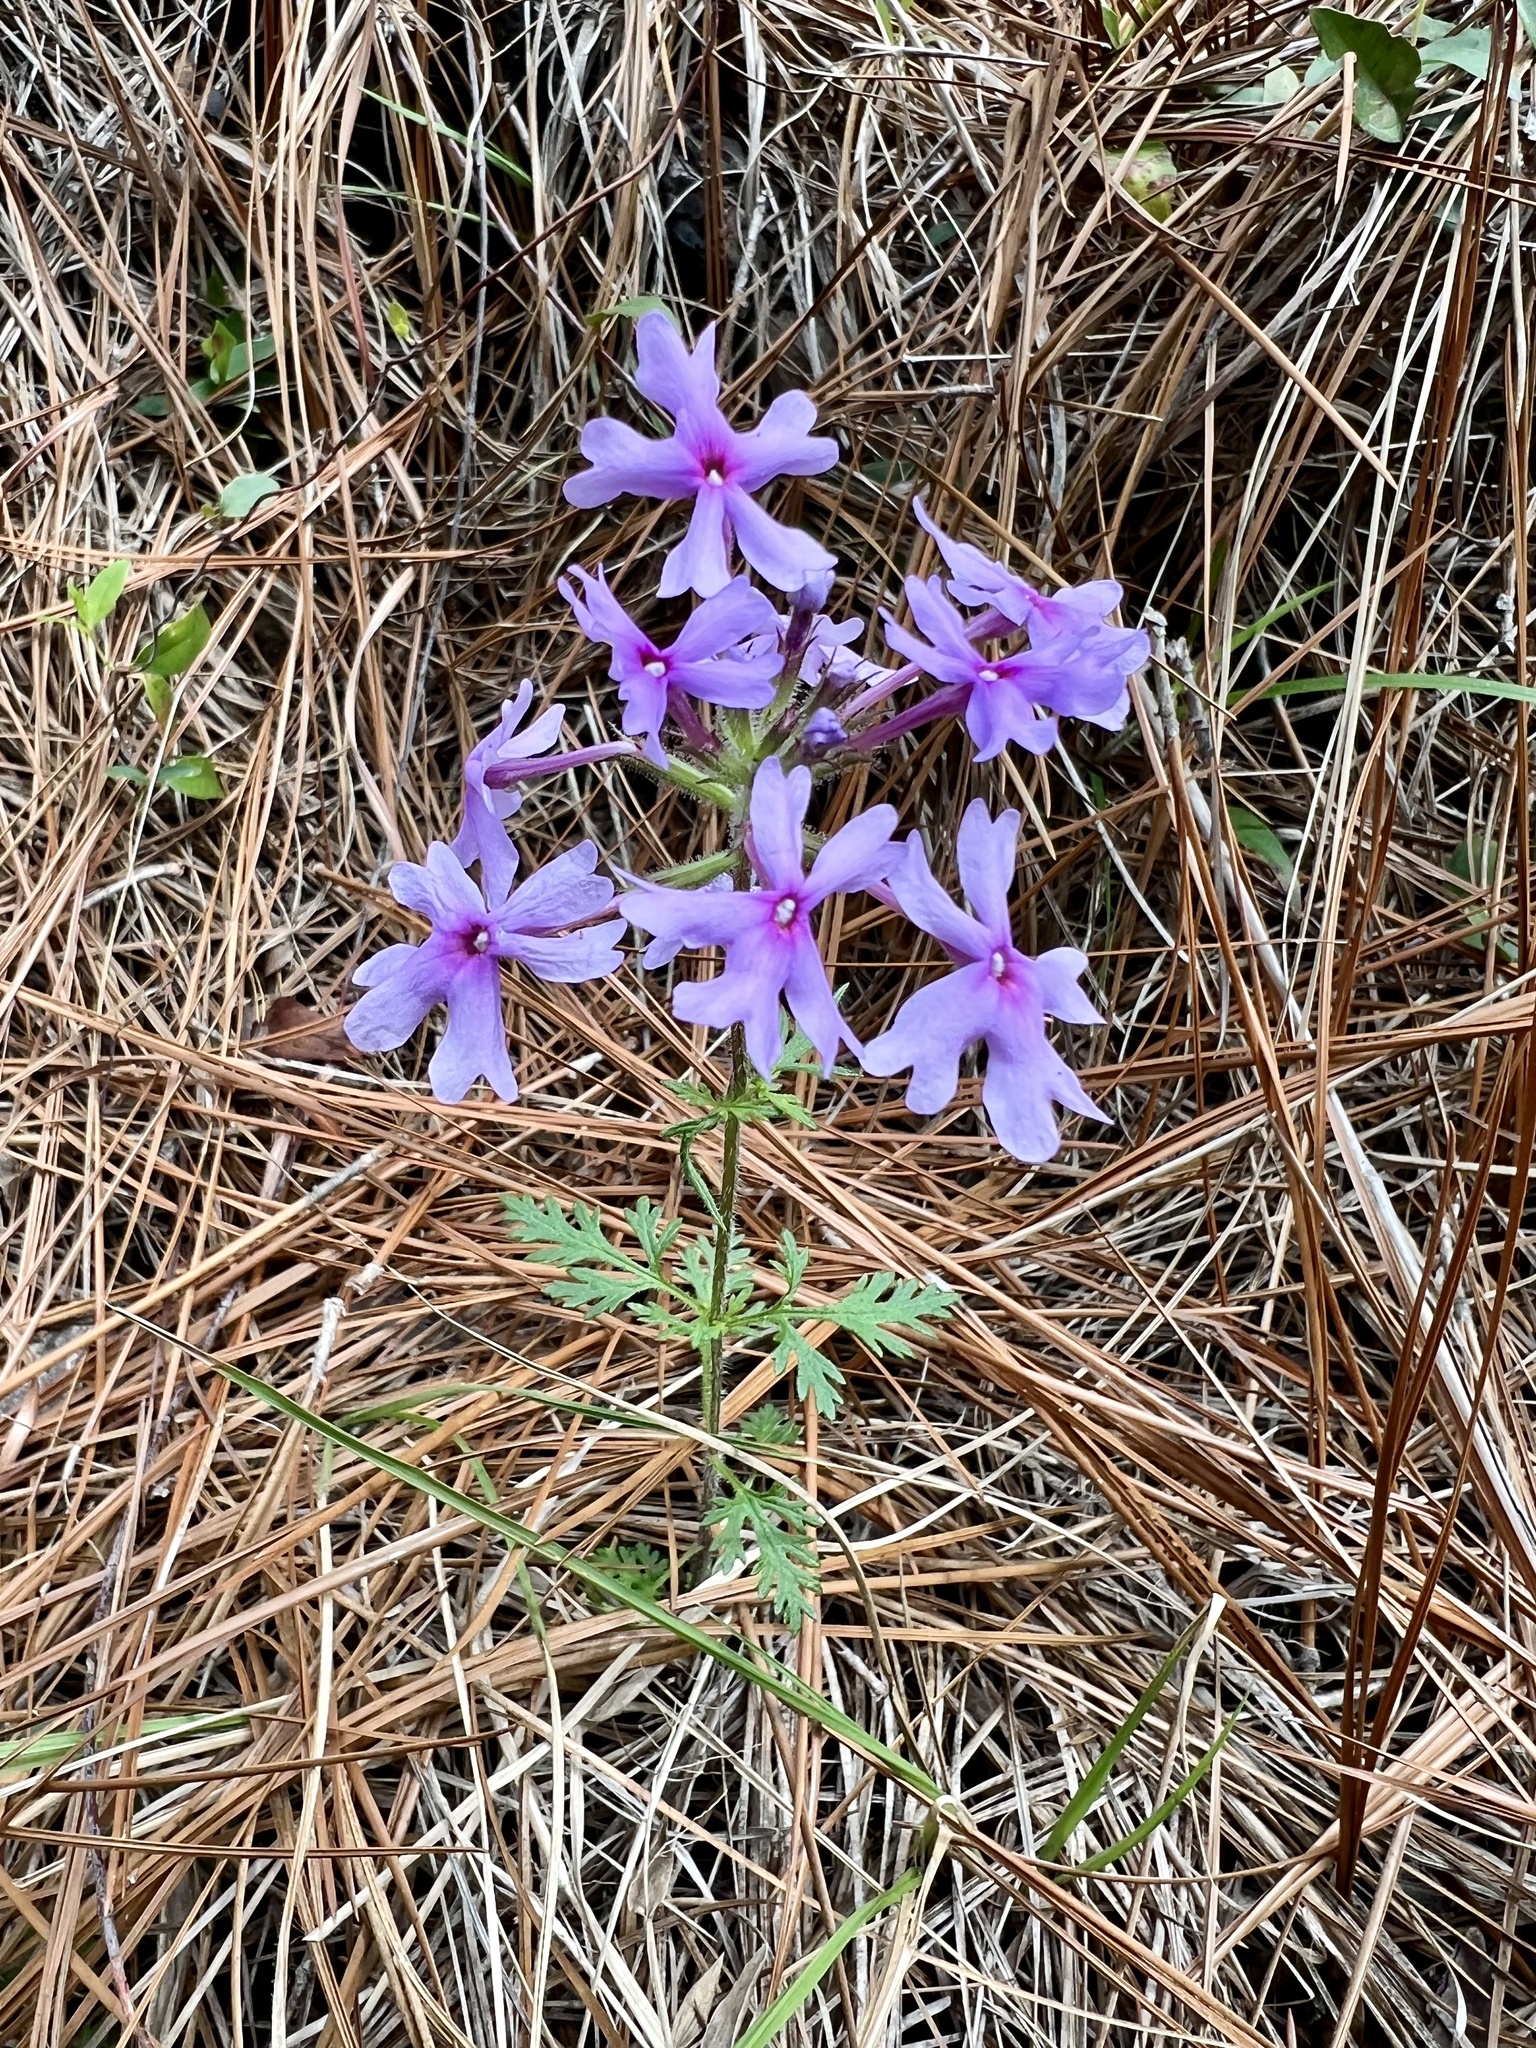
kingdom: Plantae
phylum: Tracheophyta
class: Magnoliopsida
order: Lamiales
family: Verbenaceae
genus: Verbena
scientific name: Verbena canadensis
